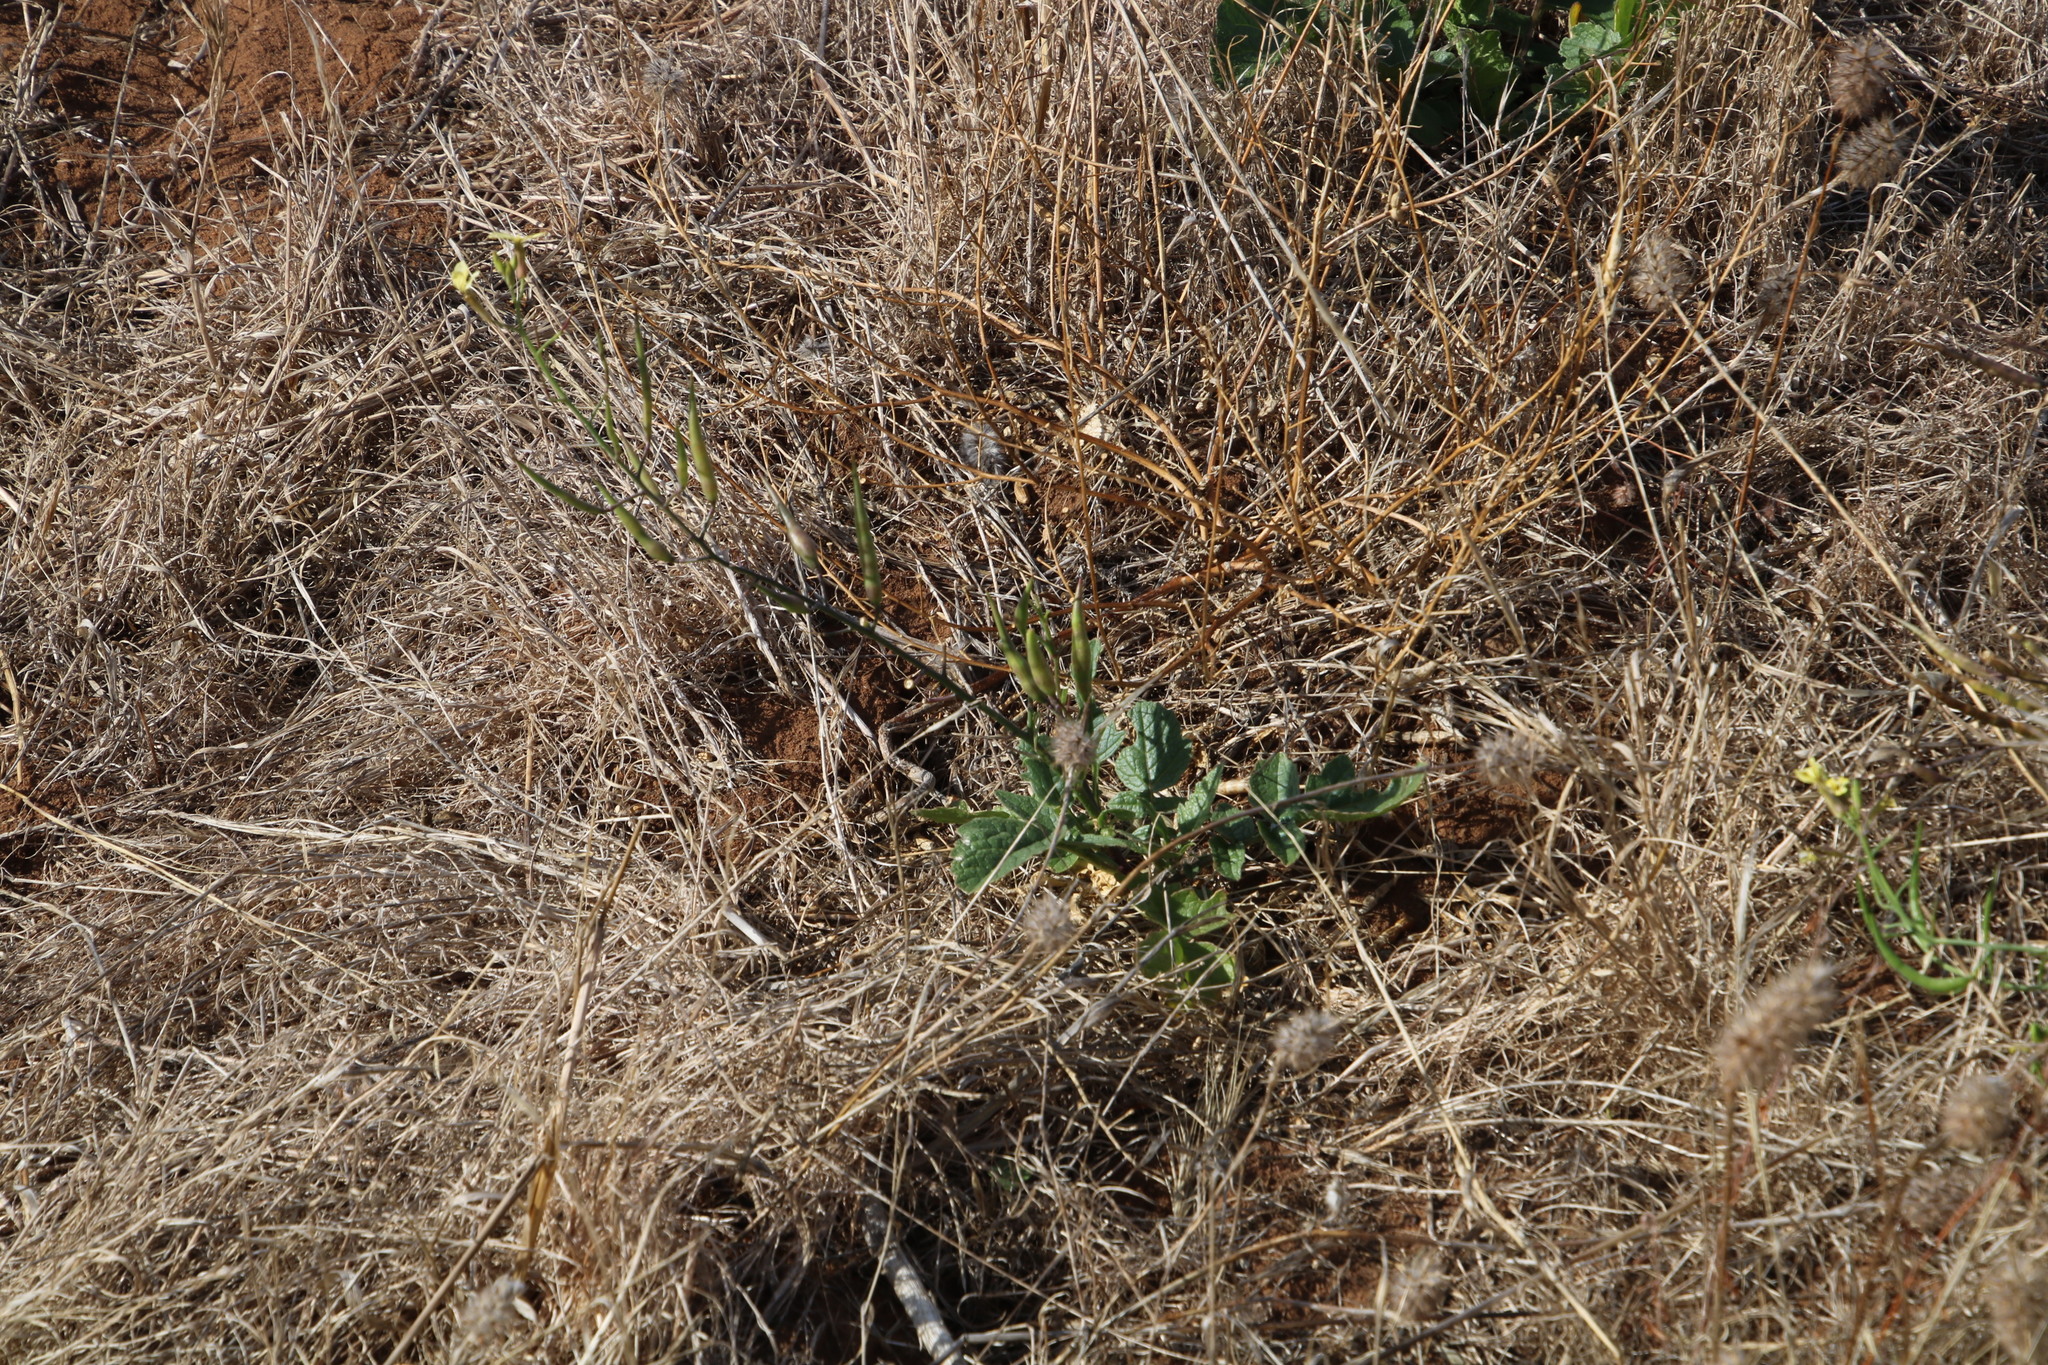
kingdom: Plantae
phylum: Tracheophyta
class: Magnoliopsida
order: Brassicales
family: Brassicaceae
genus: Raphanus
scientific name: Raphanus raphanistrum
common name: Wild radish
